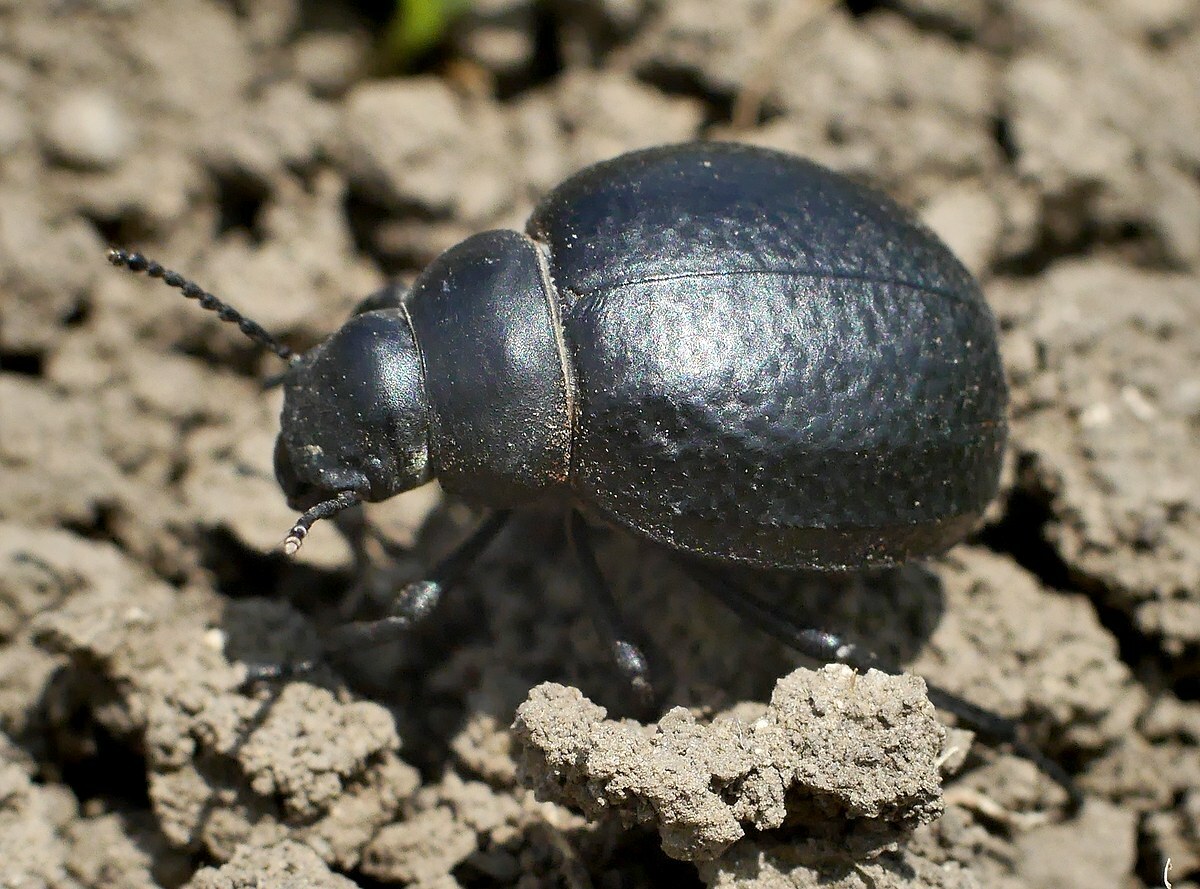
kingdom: Animalia
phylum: Arthropoda
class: Insecta
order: Coleoptera
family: Tenebrionidae
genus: Pimelia
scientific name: Pimelia subglobosa
